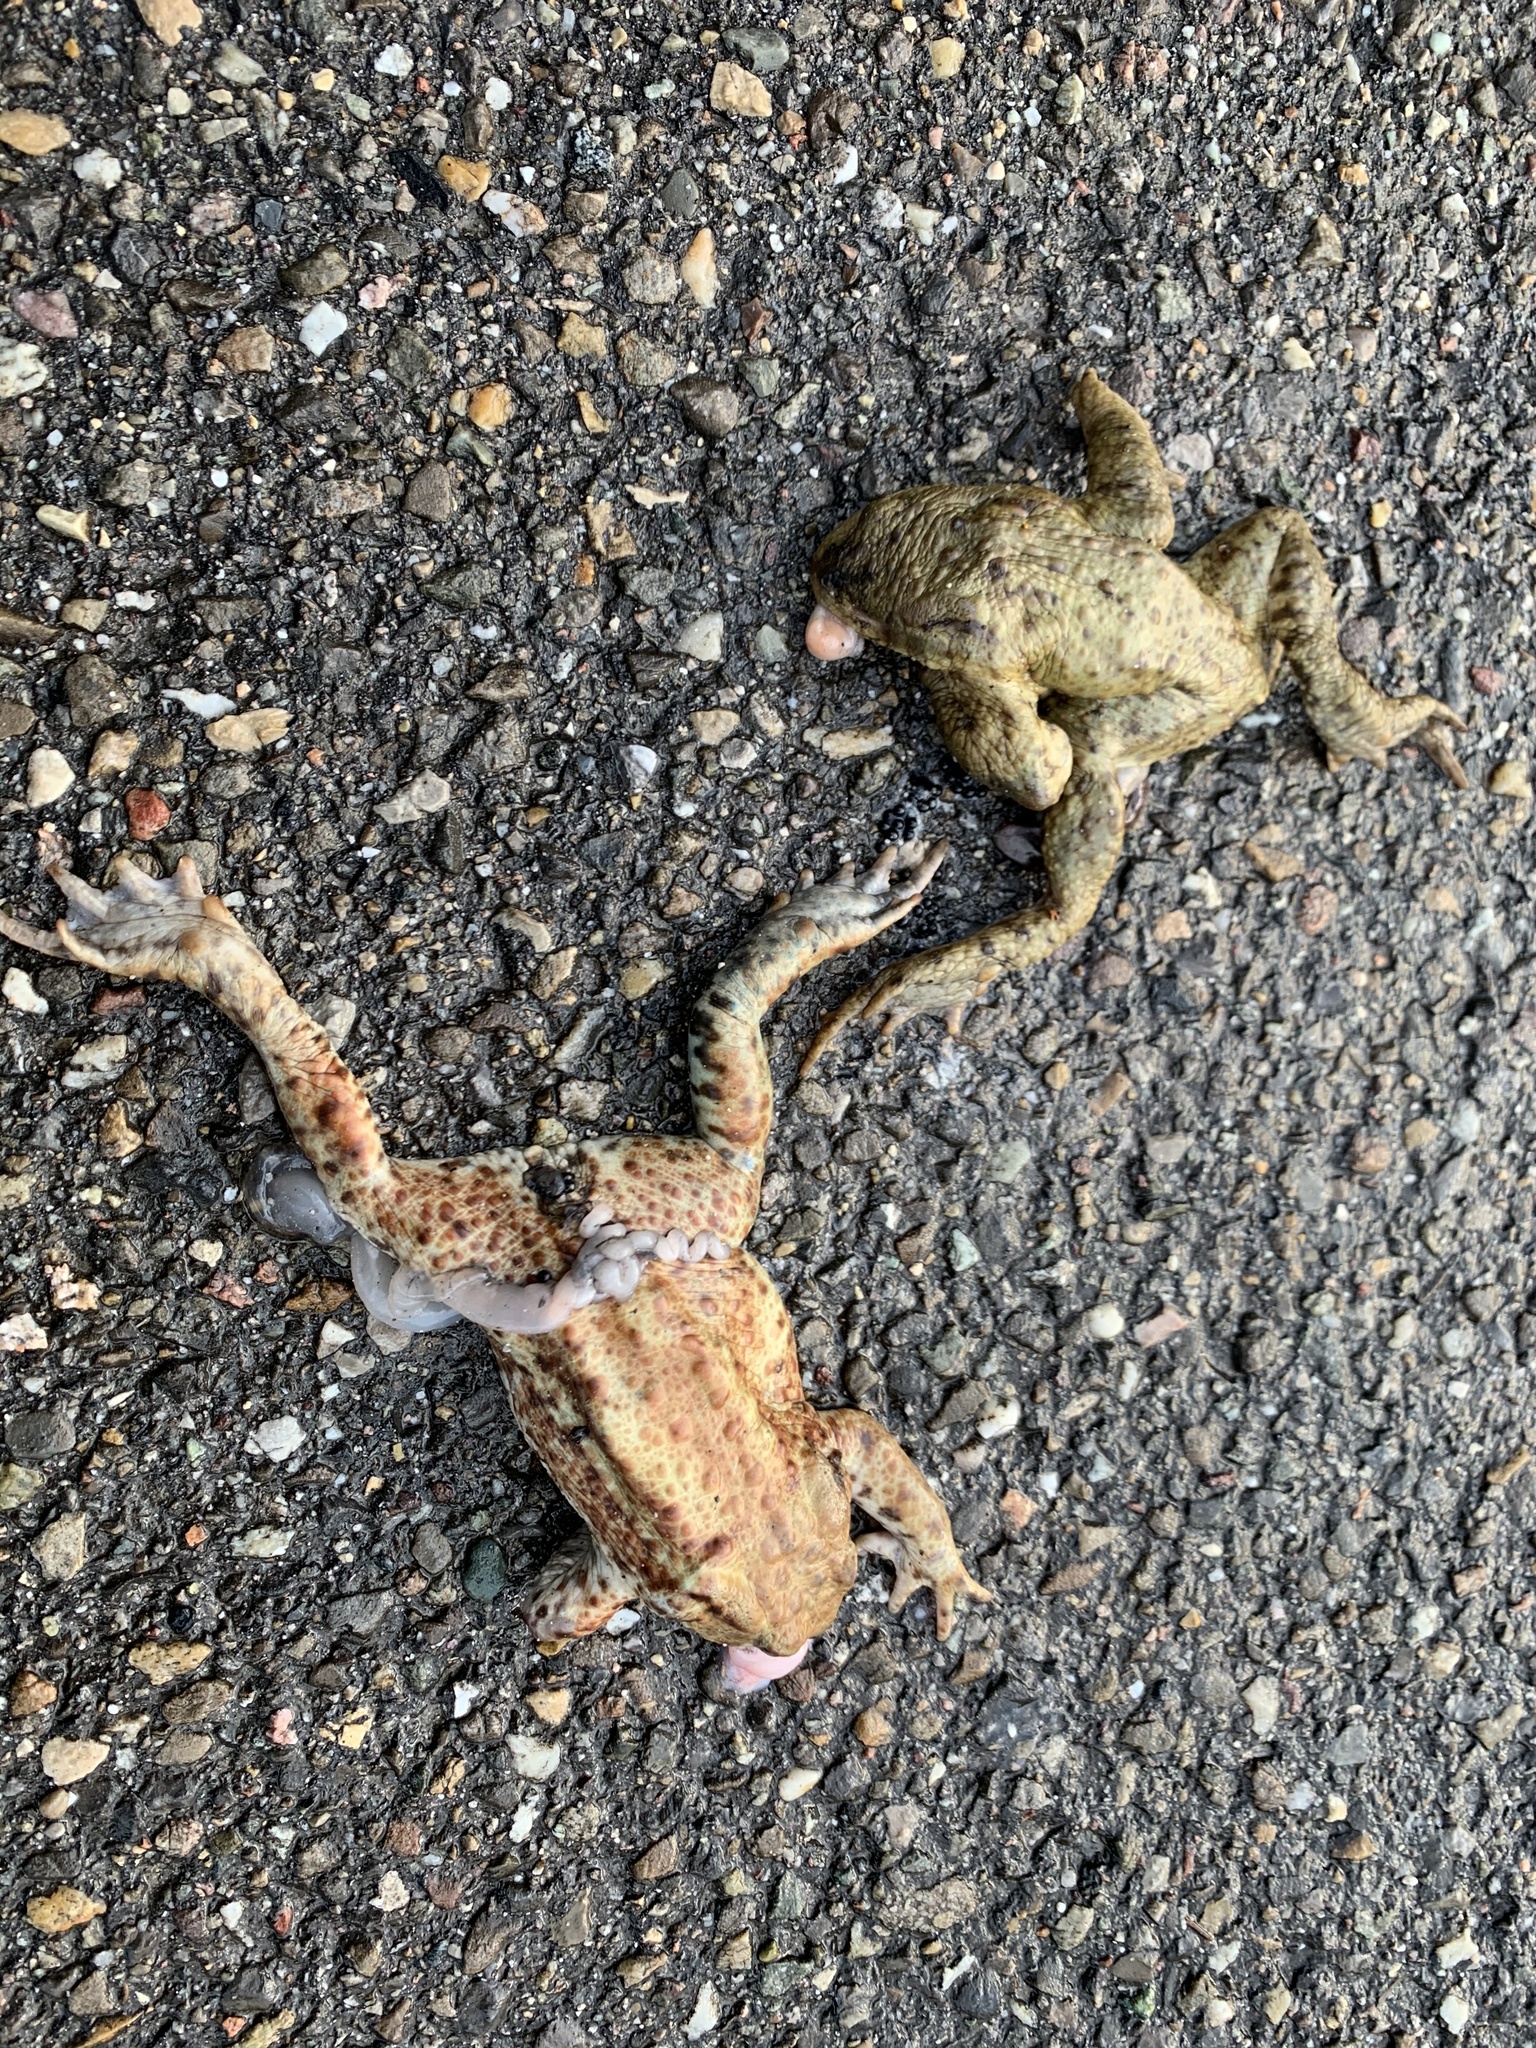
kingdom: Animalia
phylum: Chordata
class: Amphibia
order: Anura
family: Bufonidae
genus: Bufo
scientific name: Bufo bufo
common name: Common toad
